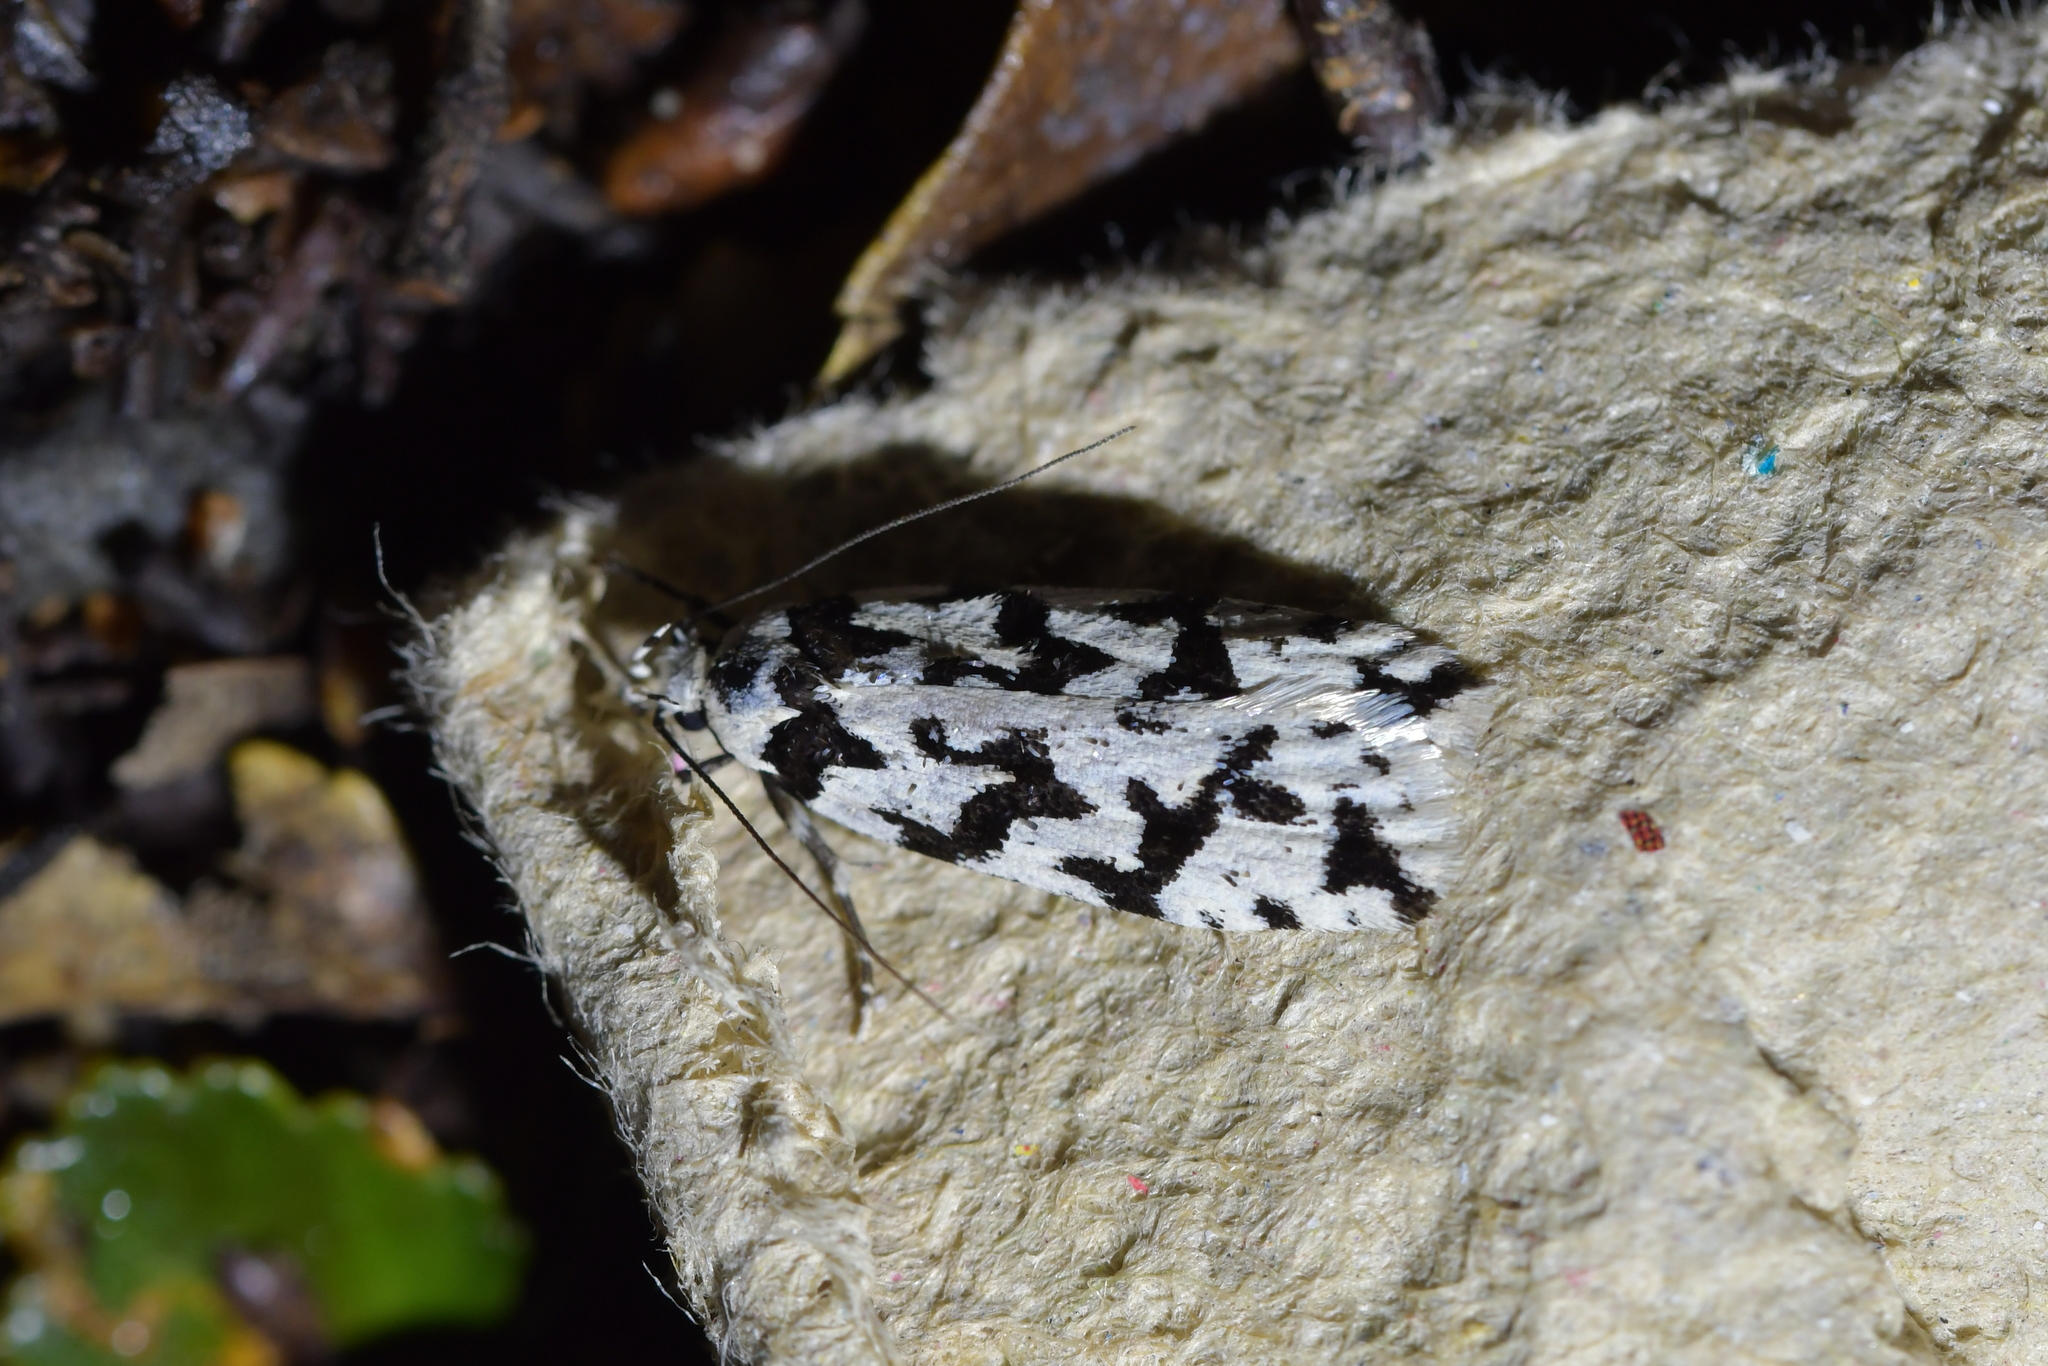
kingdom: Animalia
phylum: Arthropoda
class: Insecta
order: Lepidoptera
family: Oecophoridae
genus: Izatha
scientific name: Izatha acmonias
